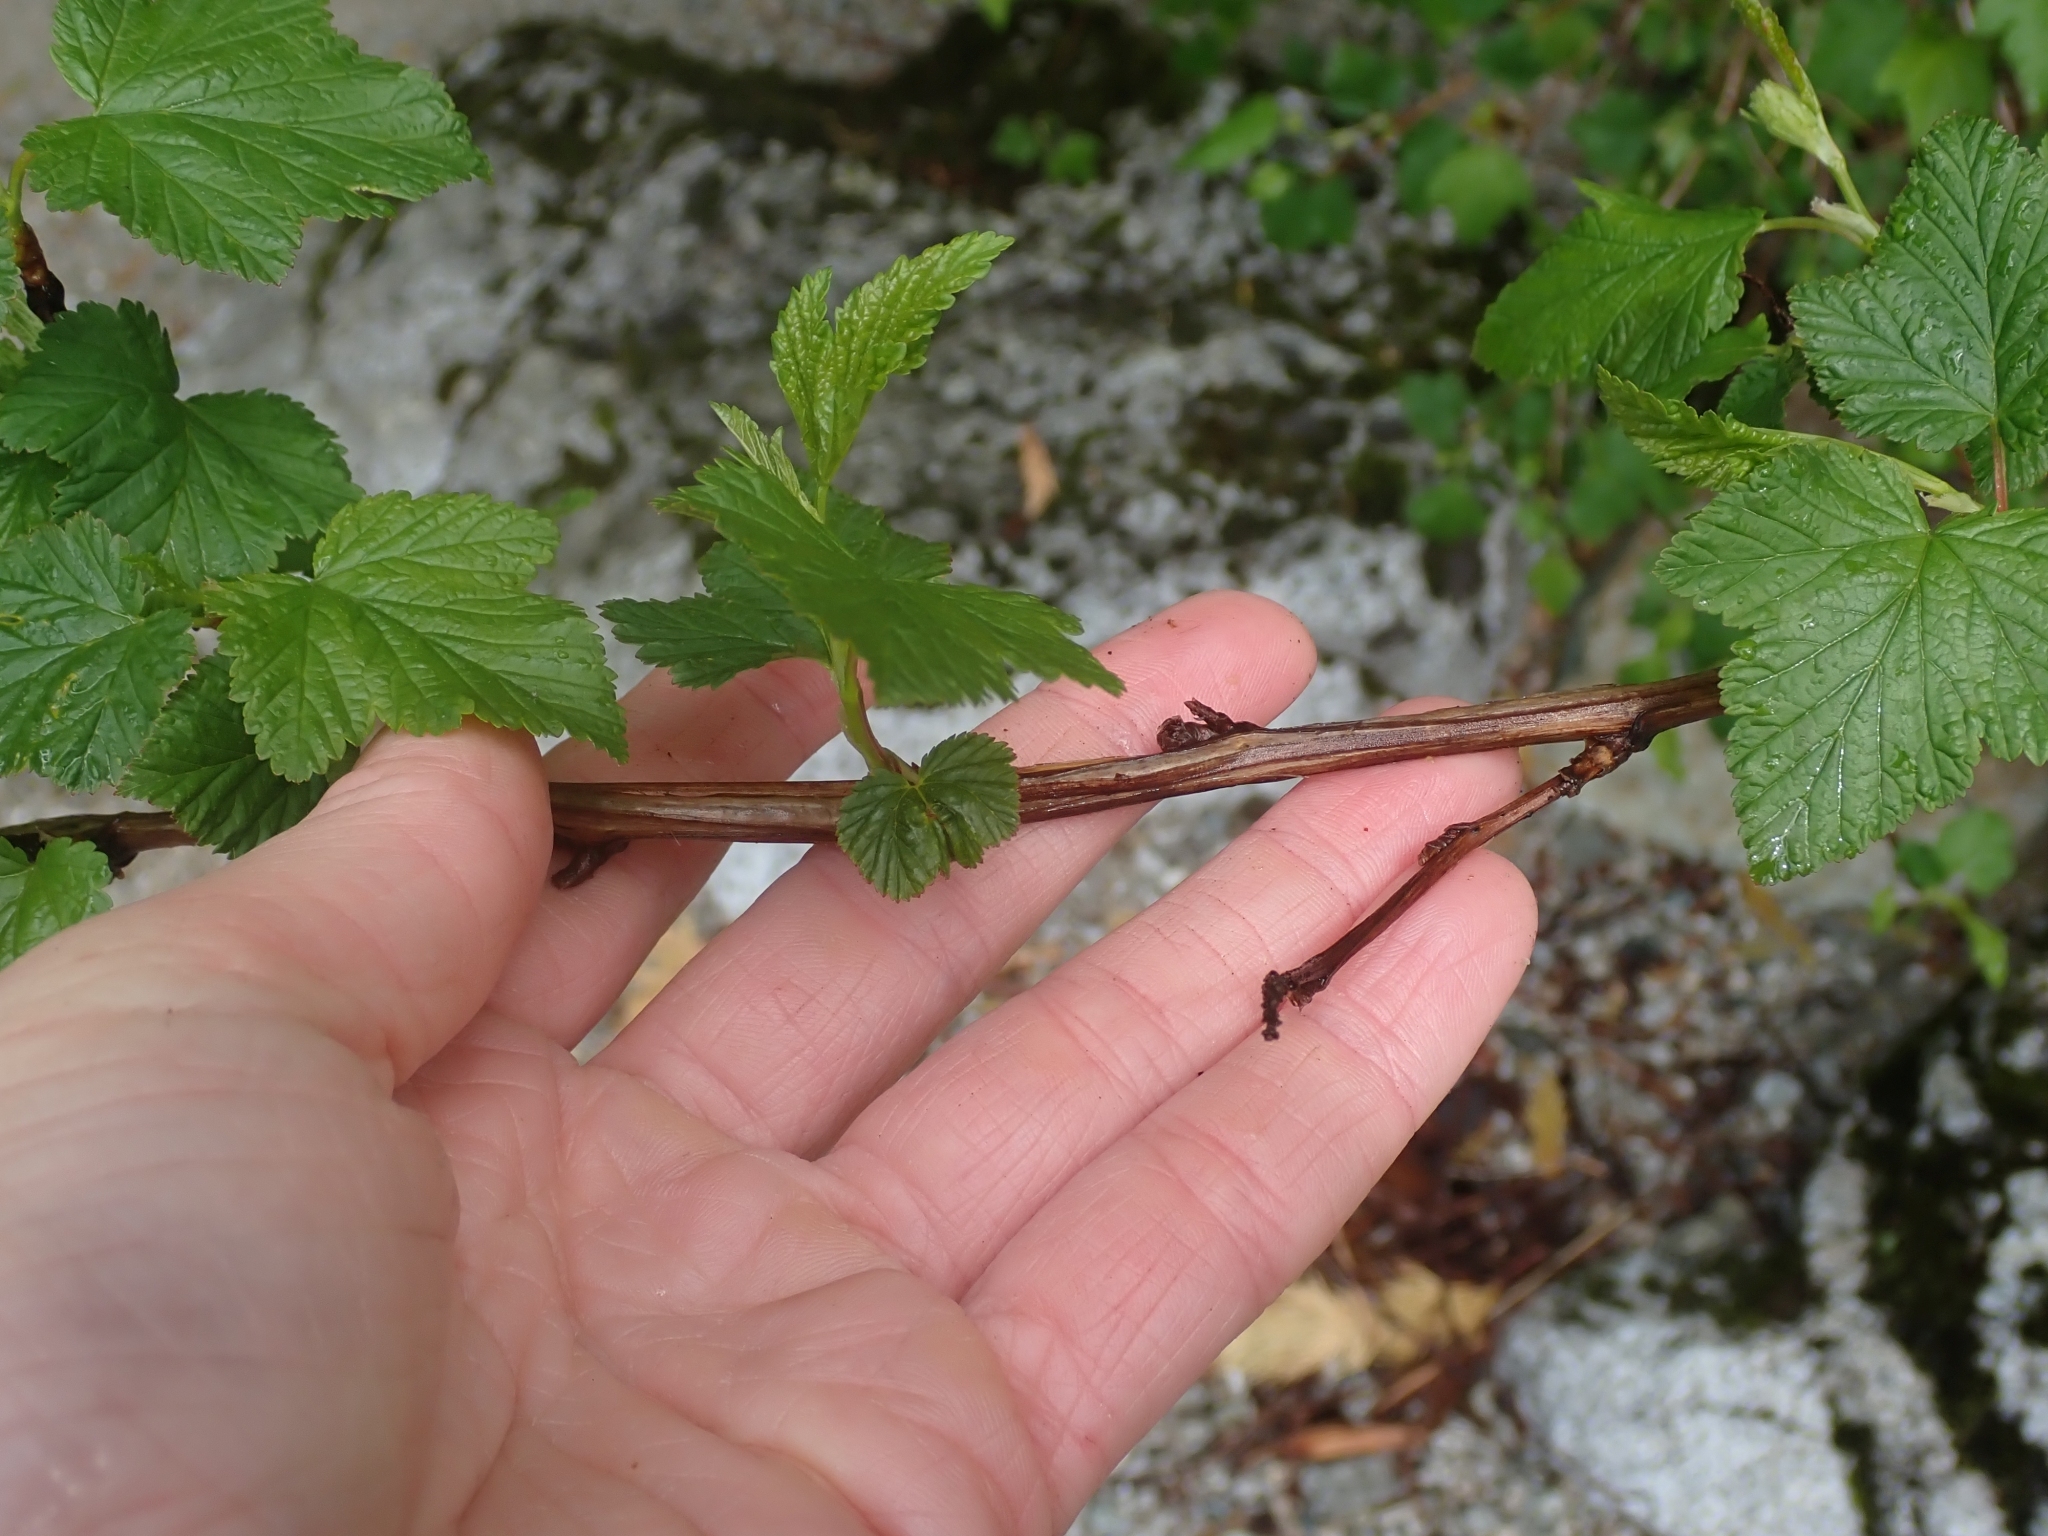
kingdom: Plantae
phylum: Tracheophyta
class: Magnoliopsida
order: Rosales
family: Rosaceae
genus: Physocarpus
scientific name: Physocarpus capitatus
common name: Pacific ninebark
